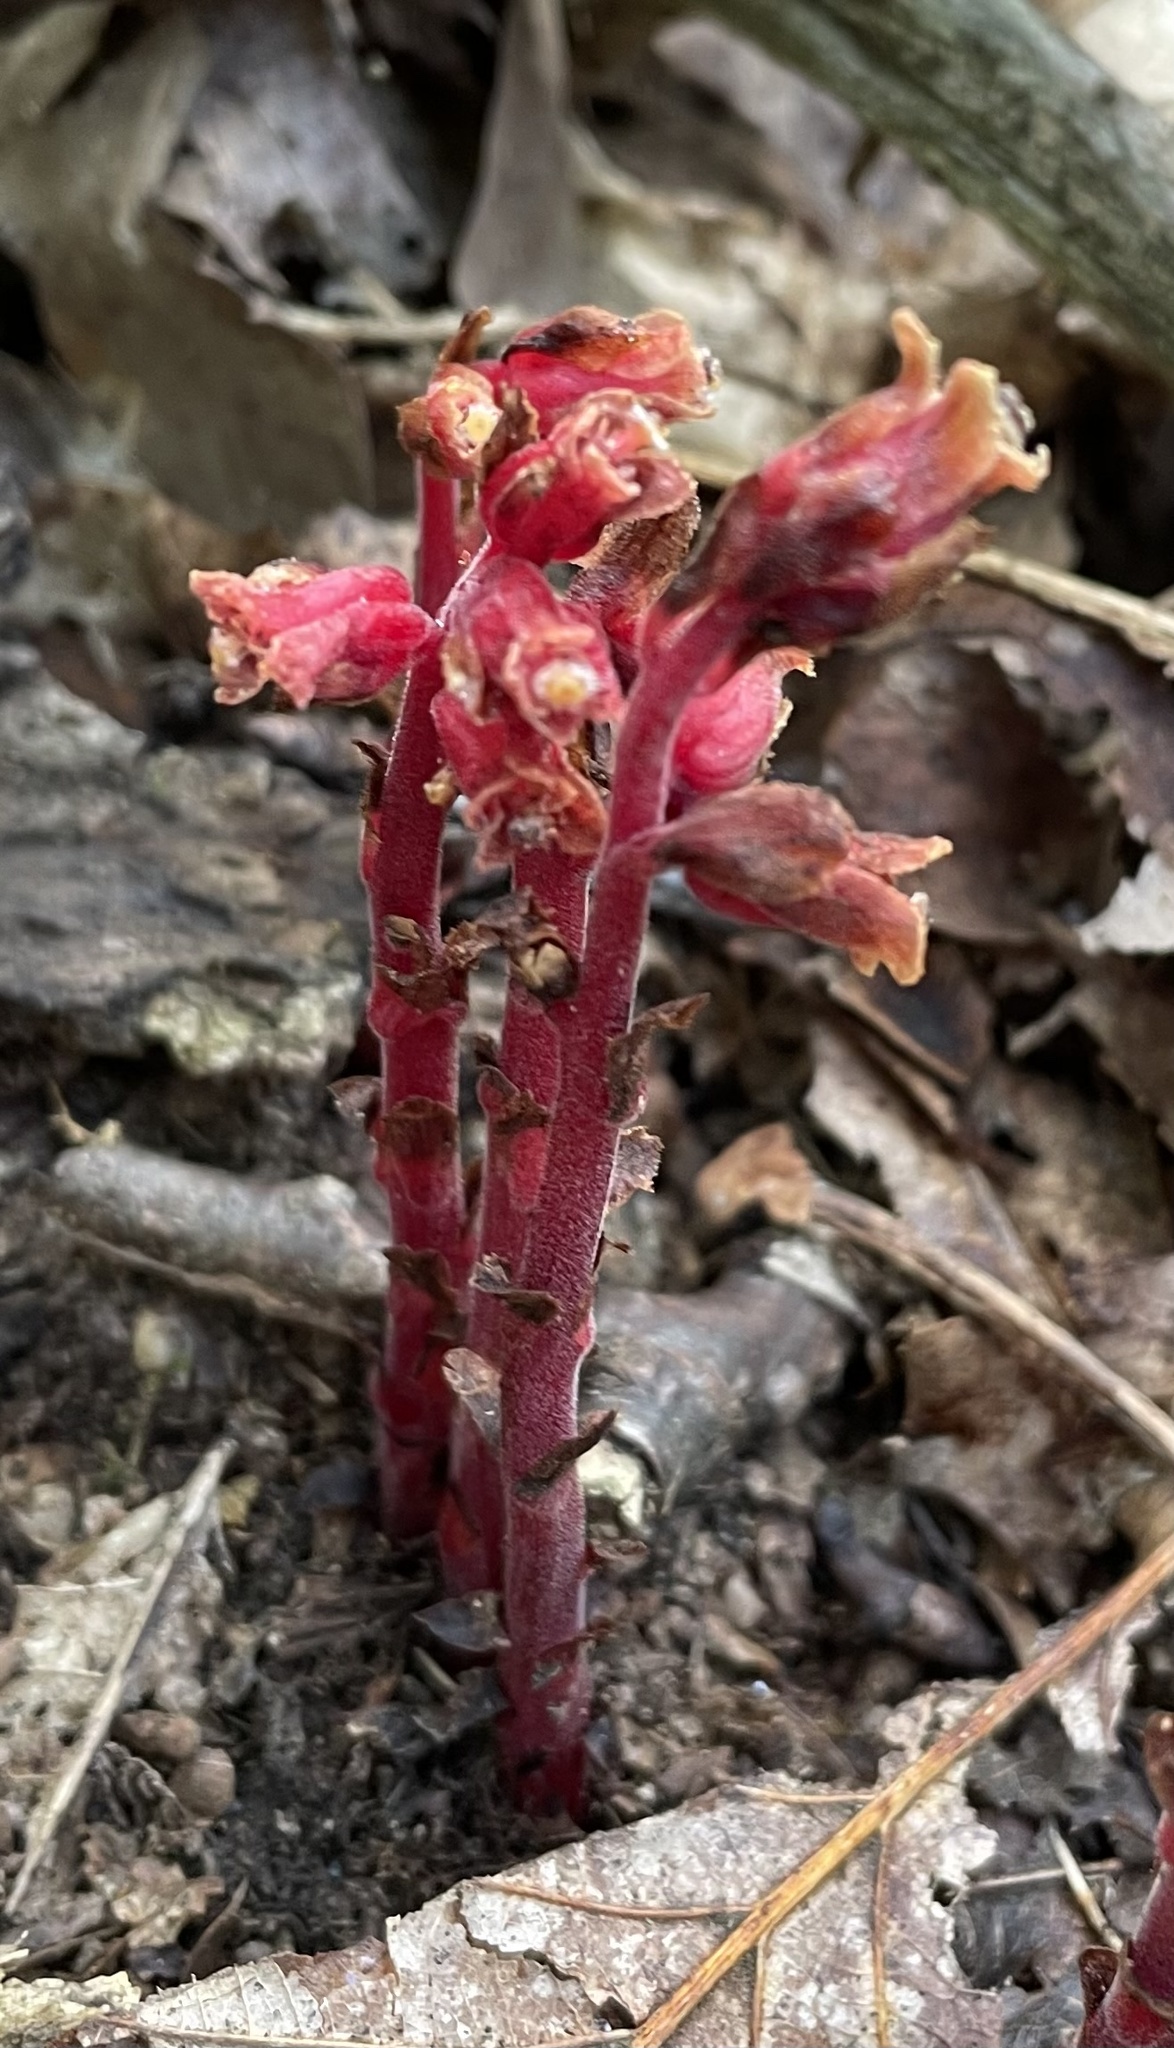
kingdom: Plantae
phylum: Tracheophyta
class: Magnoliopsida
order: Ericales
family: Ericaceae
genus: Hypopitys
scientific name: Hypopitys monotropa
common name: Yellow bird's-nest
